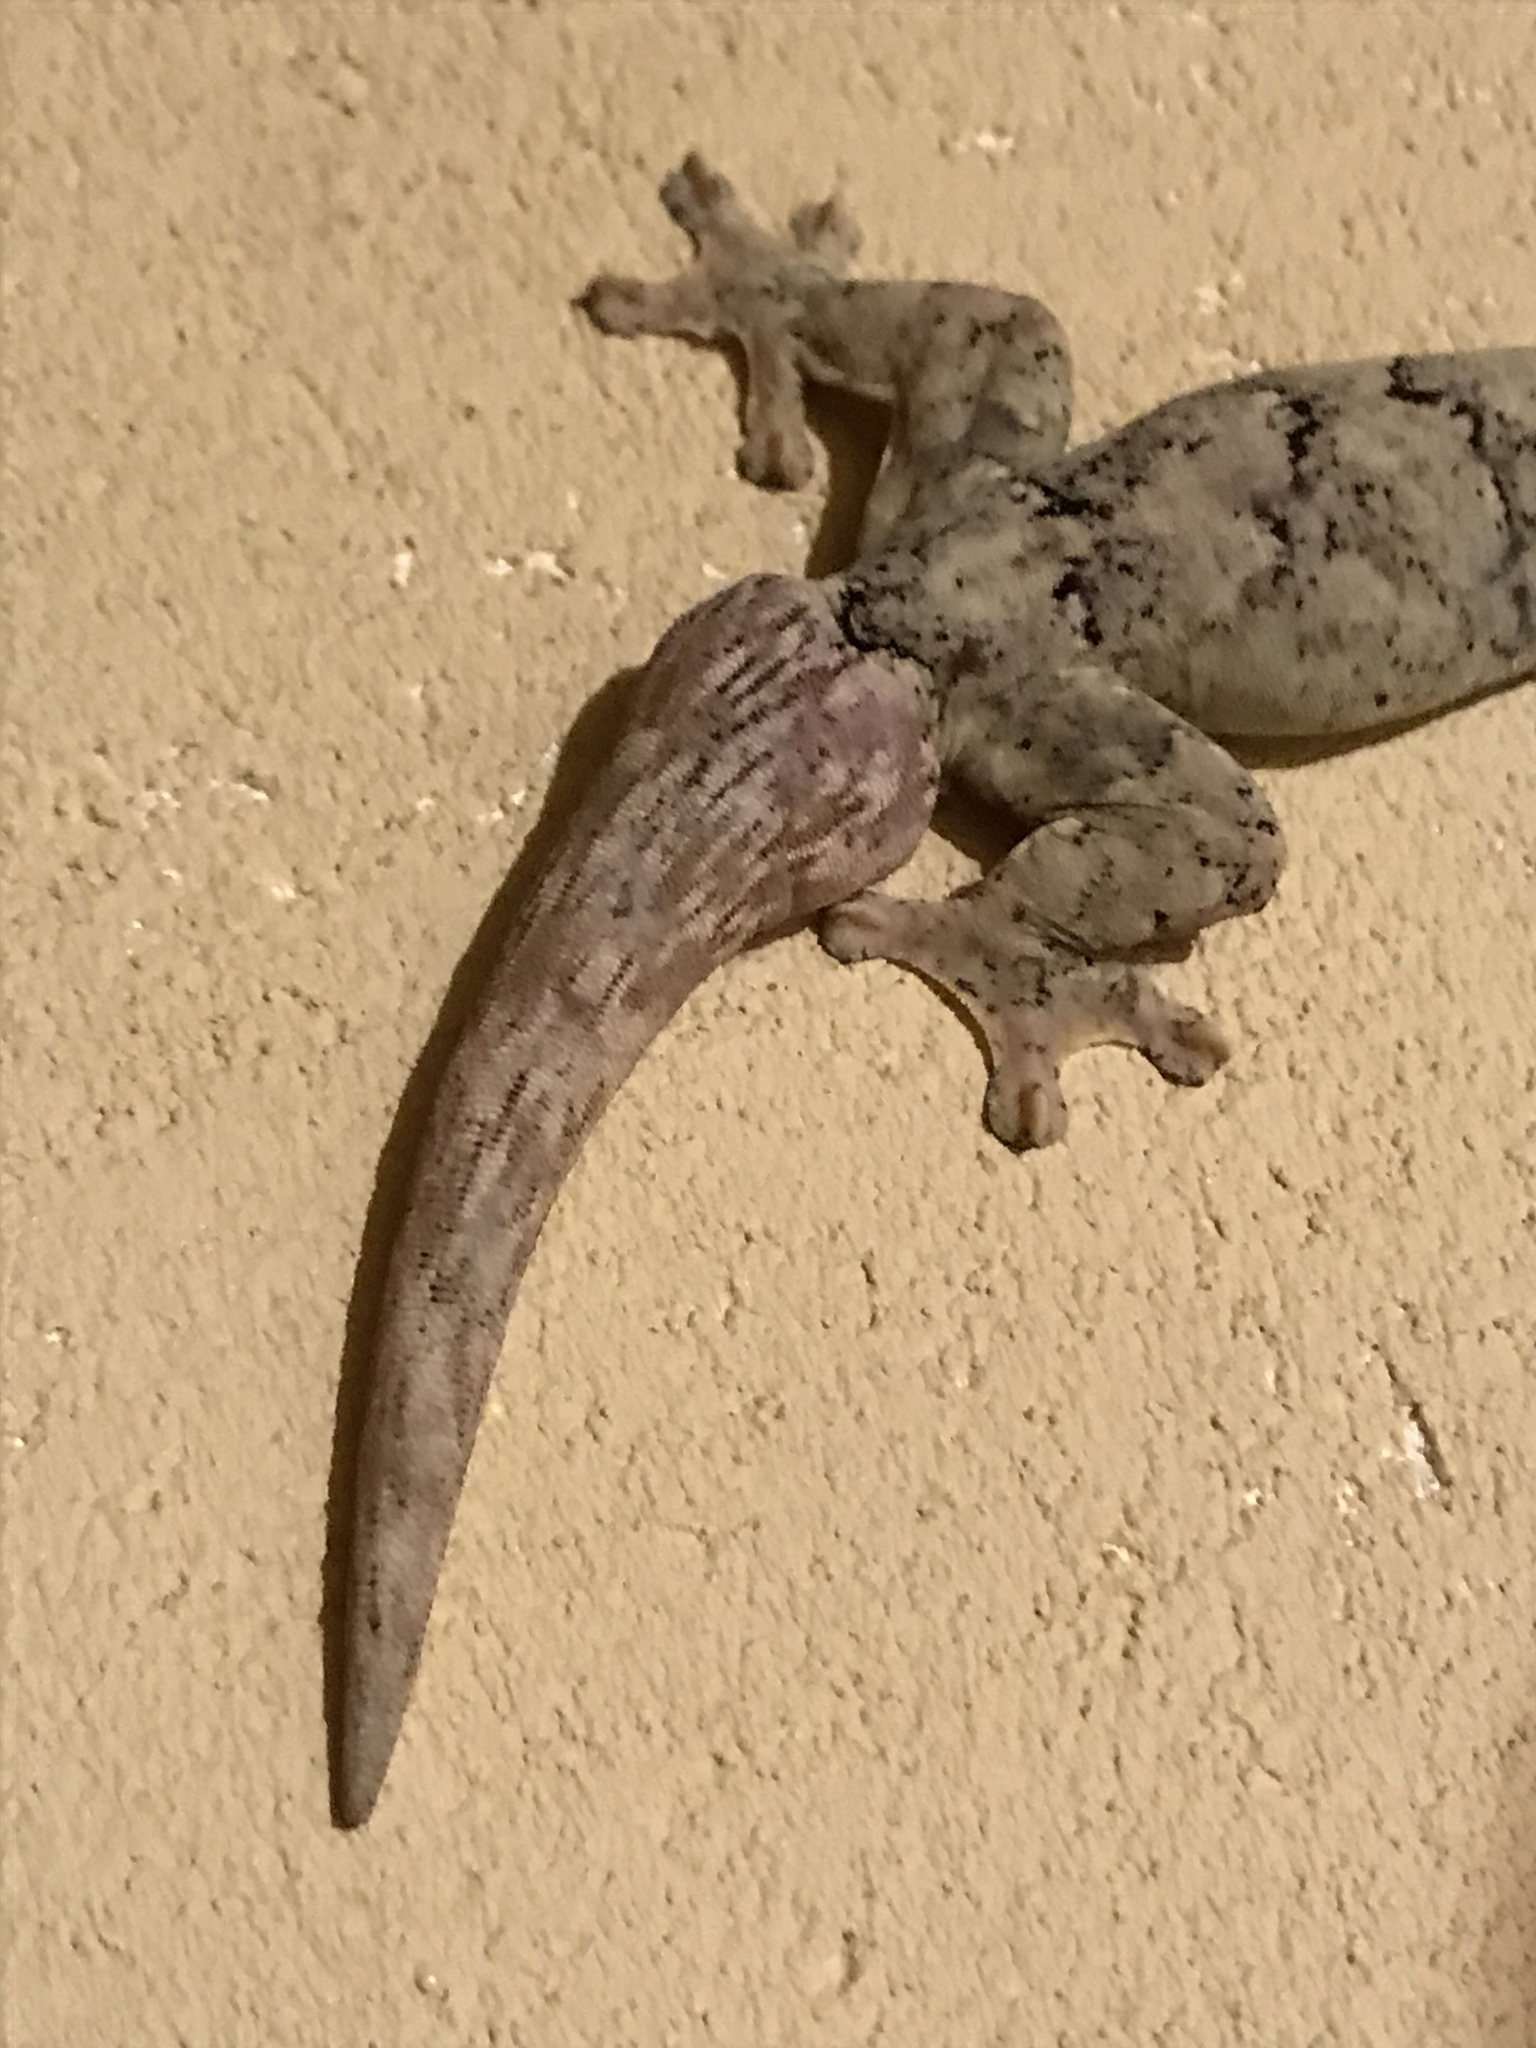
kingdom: Animalia
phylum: Chordata
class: Squamata
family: Phyllodactylidae
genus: Thecadactylus
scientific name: Thecadactylus rapicauda
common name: Turnip-tailed gecko
